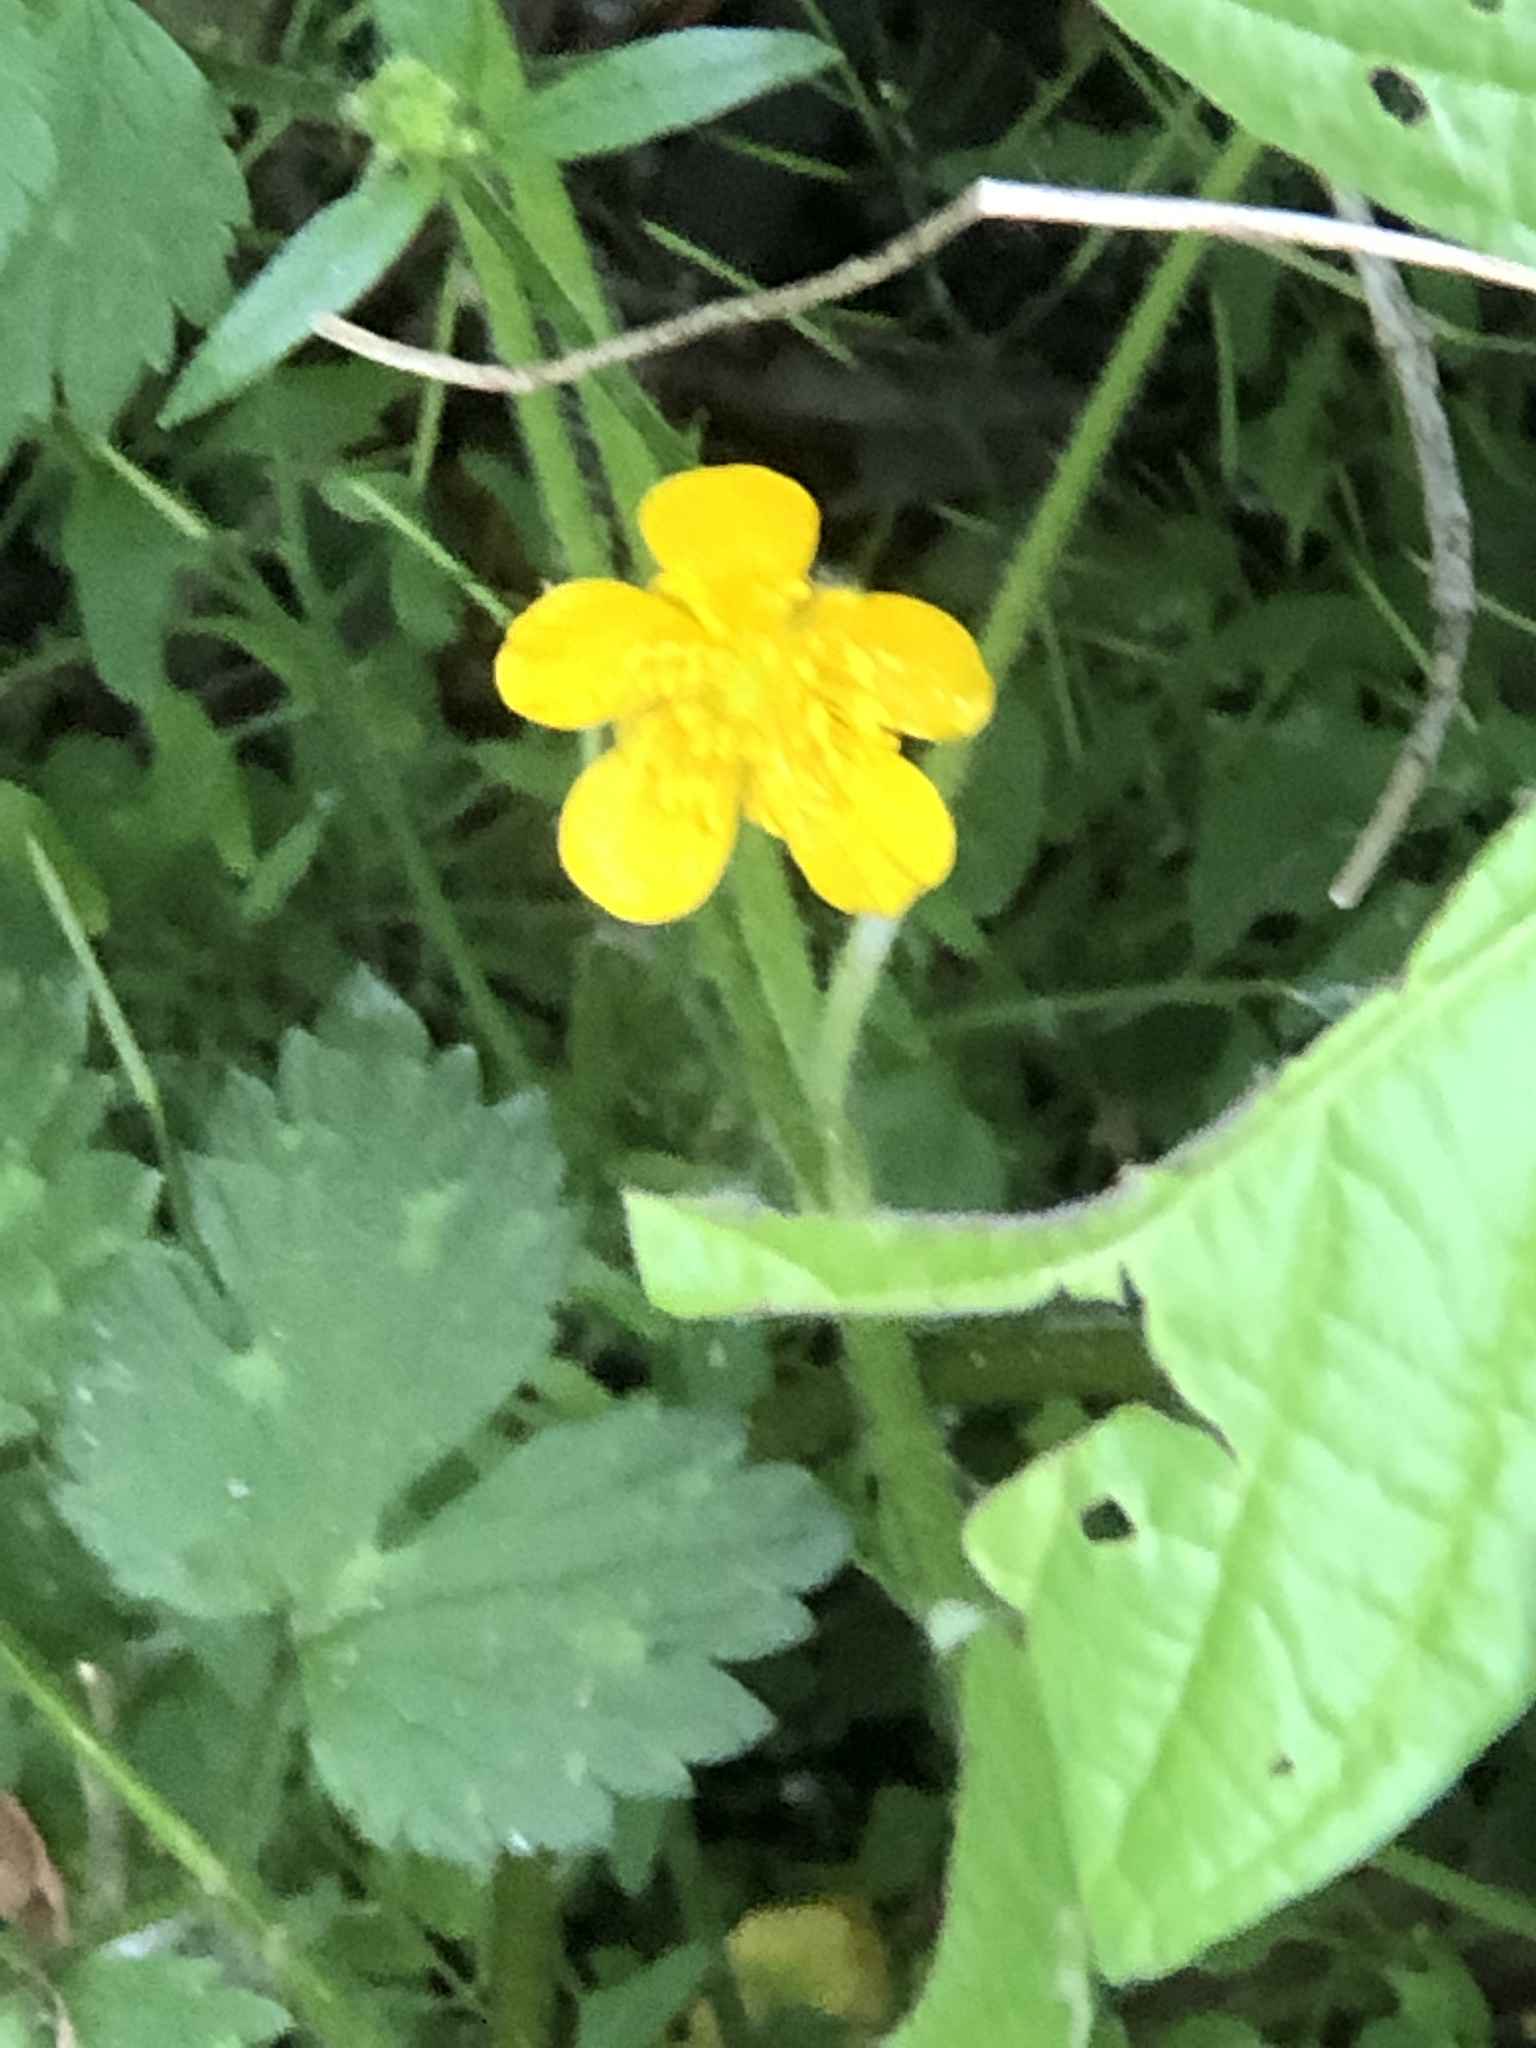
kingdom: Plantae
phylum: Tracheophyta
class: Magnoliopsida
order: Ranunculales
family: Ranunculaceae
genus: Ranunculus
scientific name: Ranunculus repens
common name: Creeping buttercup
